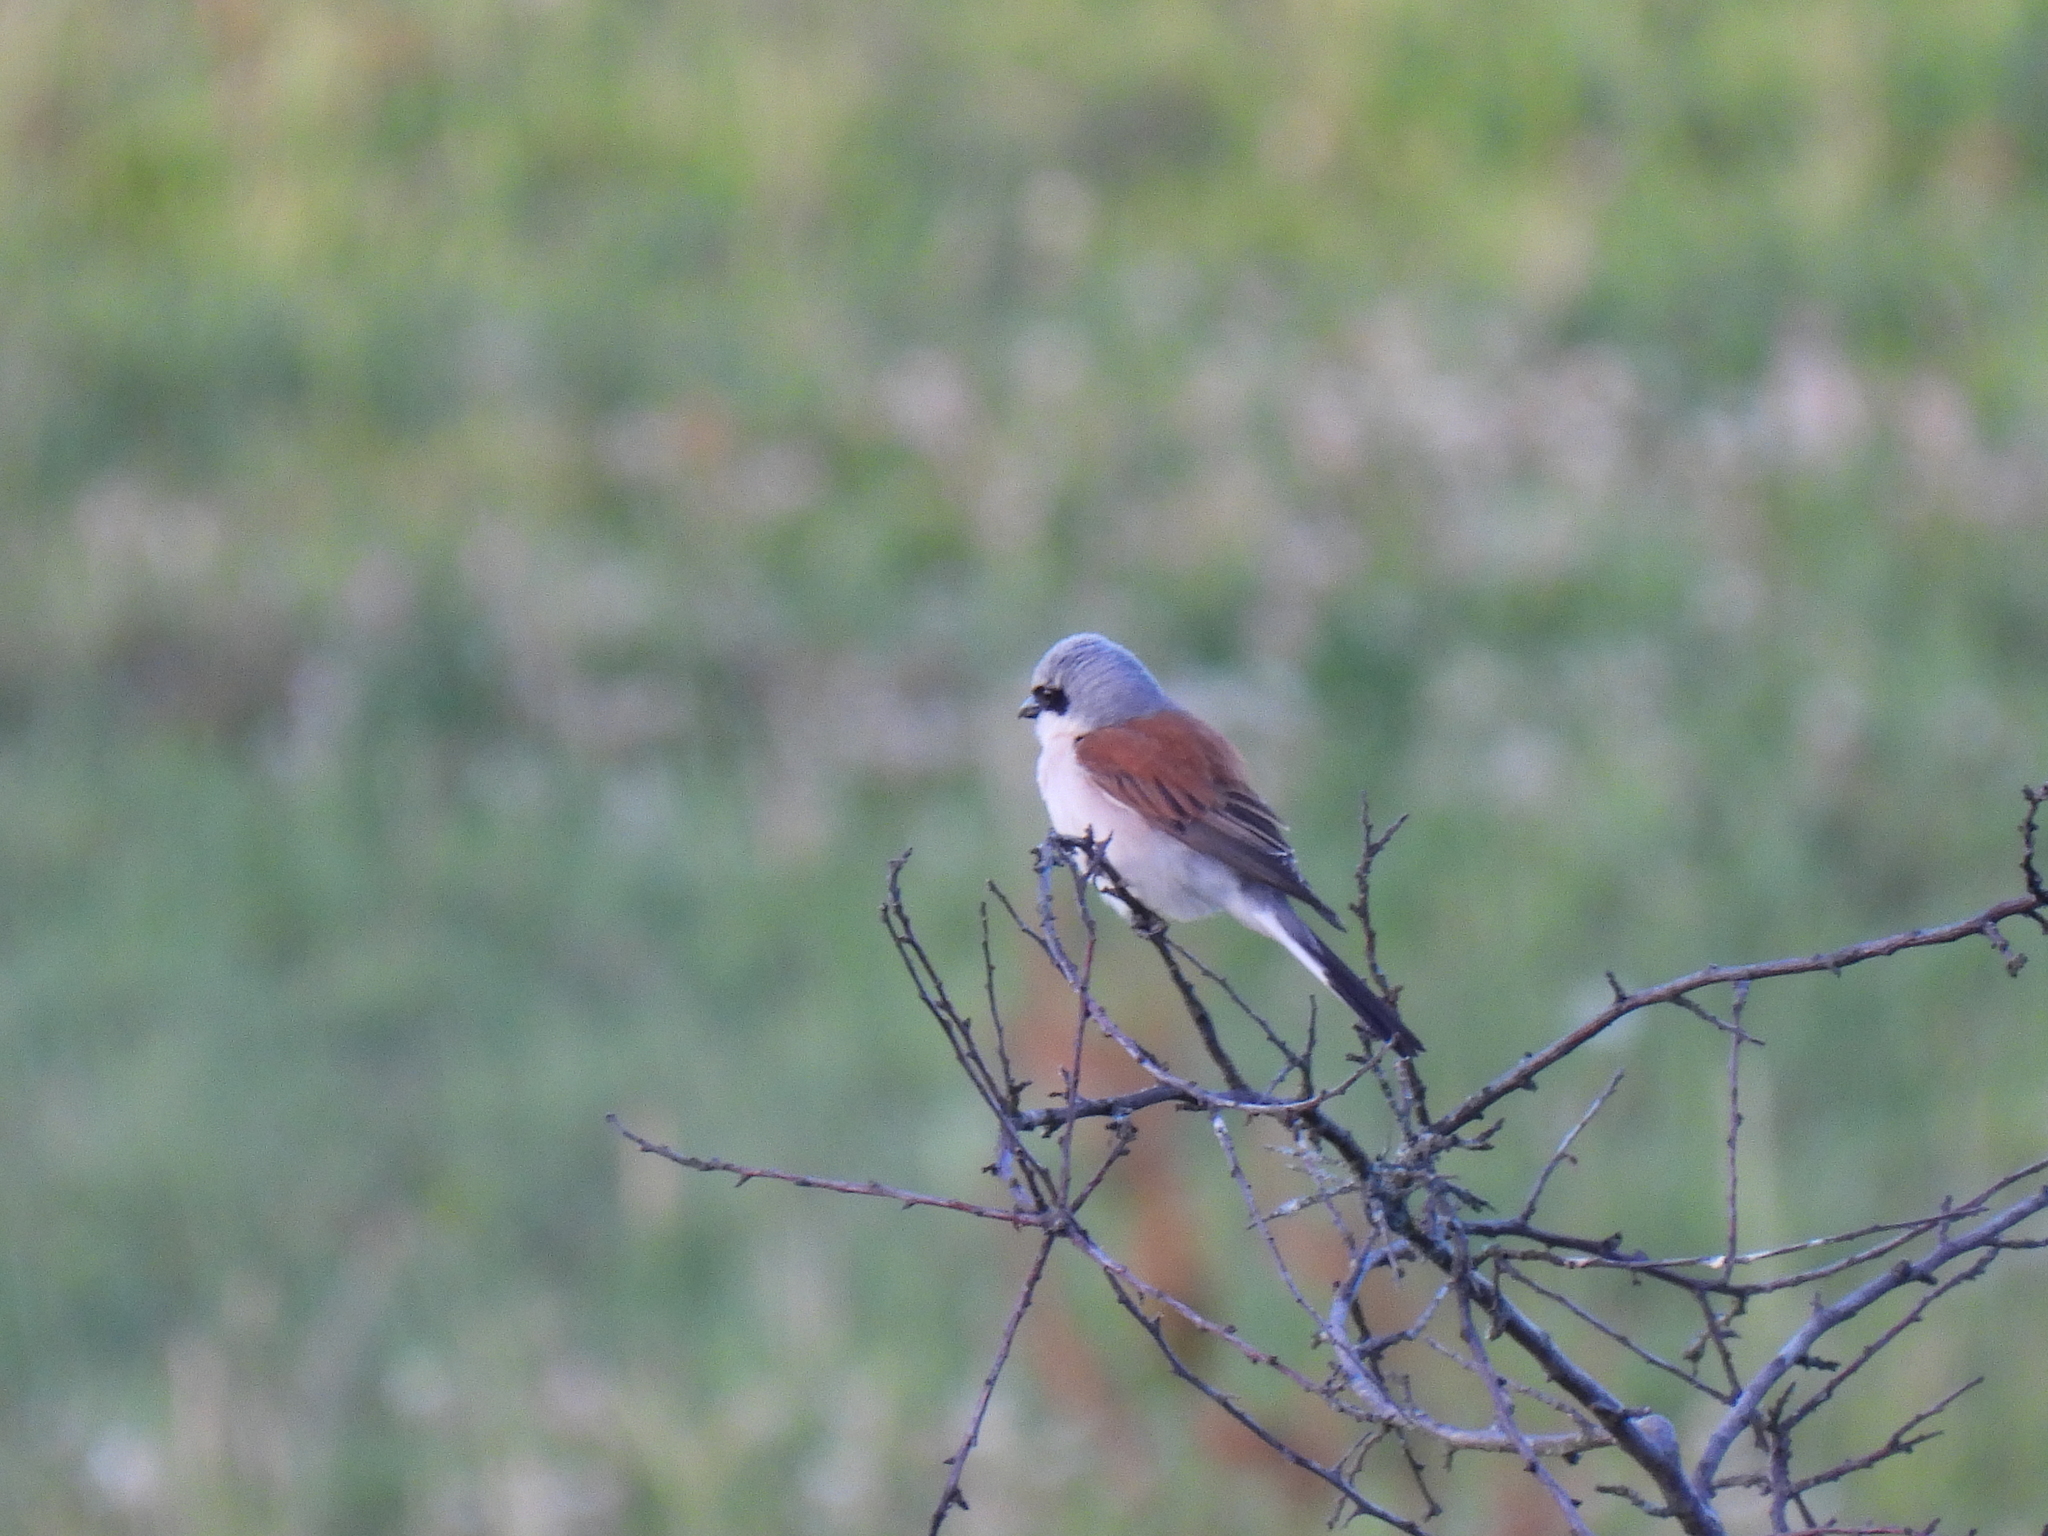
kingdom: Animalia
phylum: Chordata
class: Aves
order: Passeriformes
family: Laniidae
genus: Lanius
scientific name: Lanius collurio
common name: Red-backed shrike
